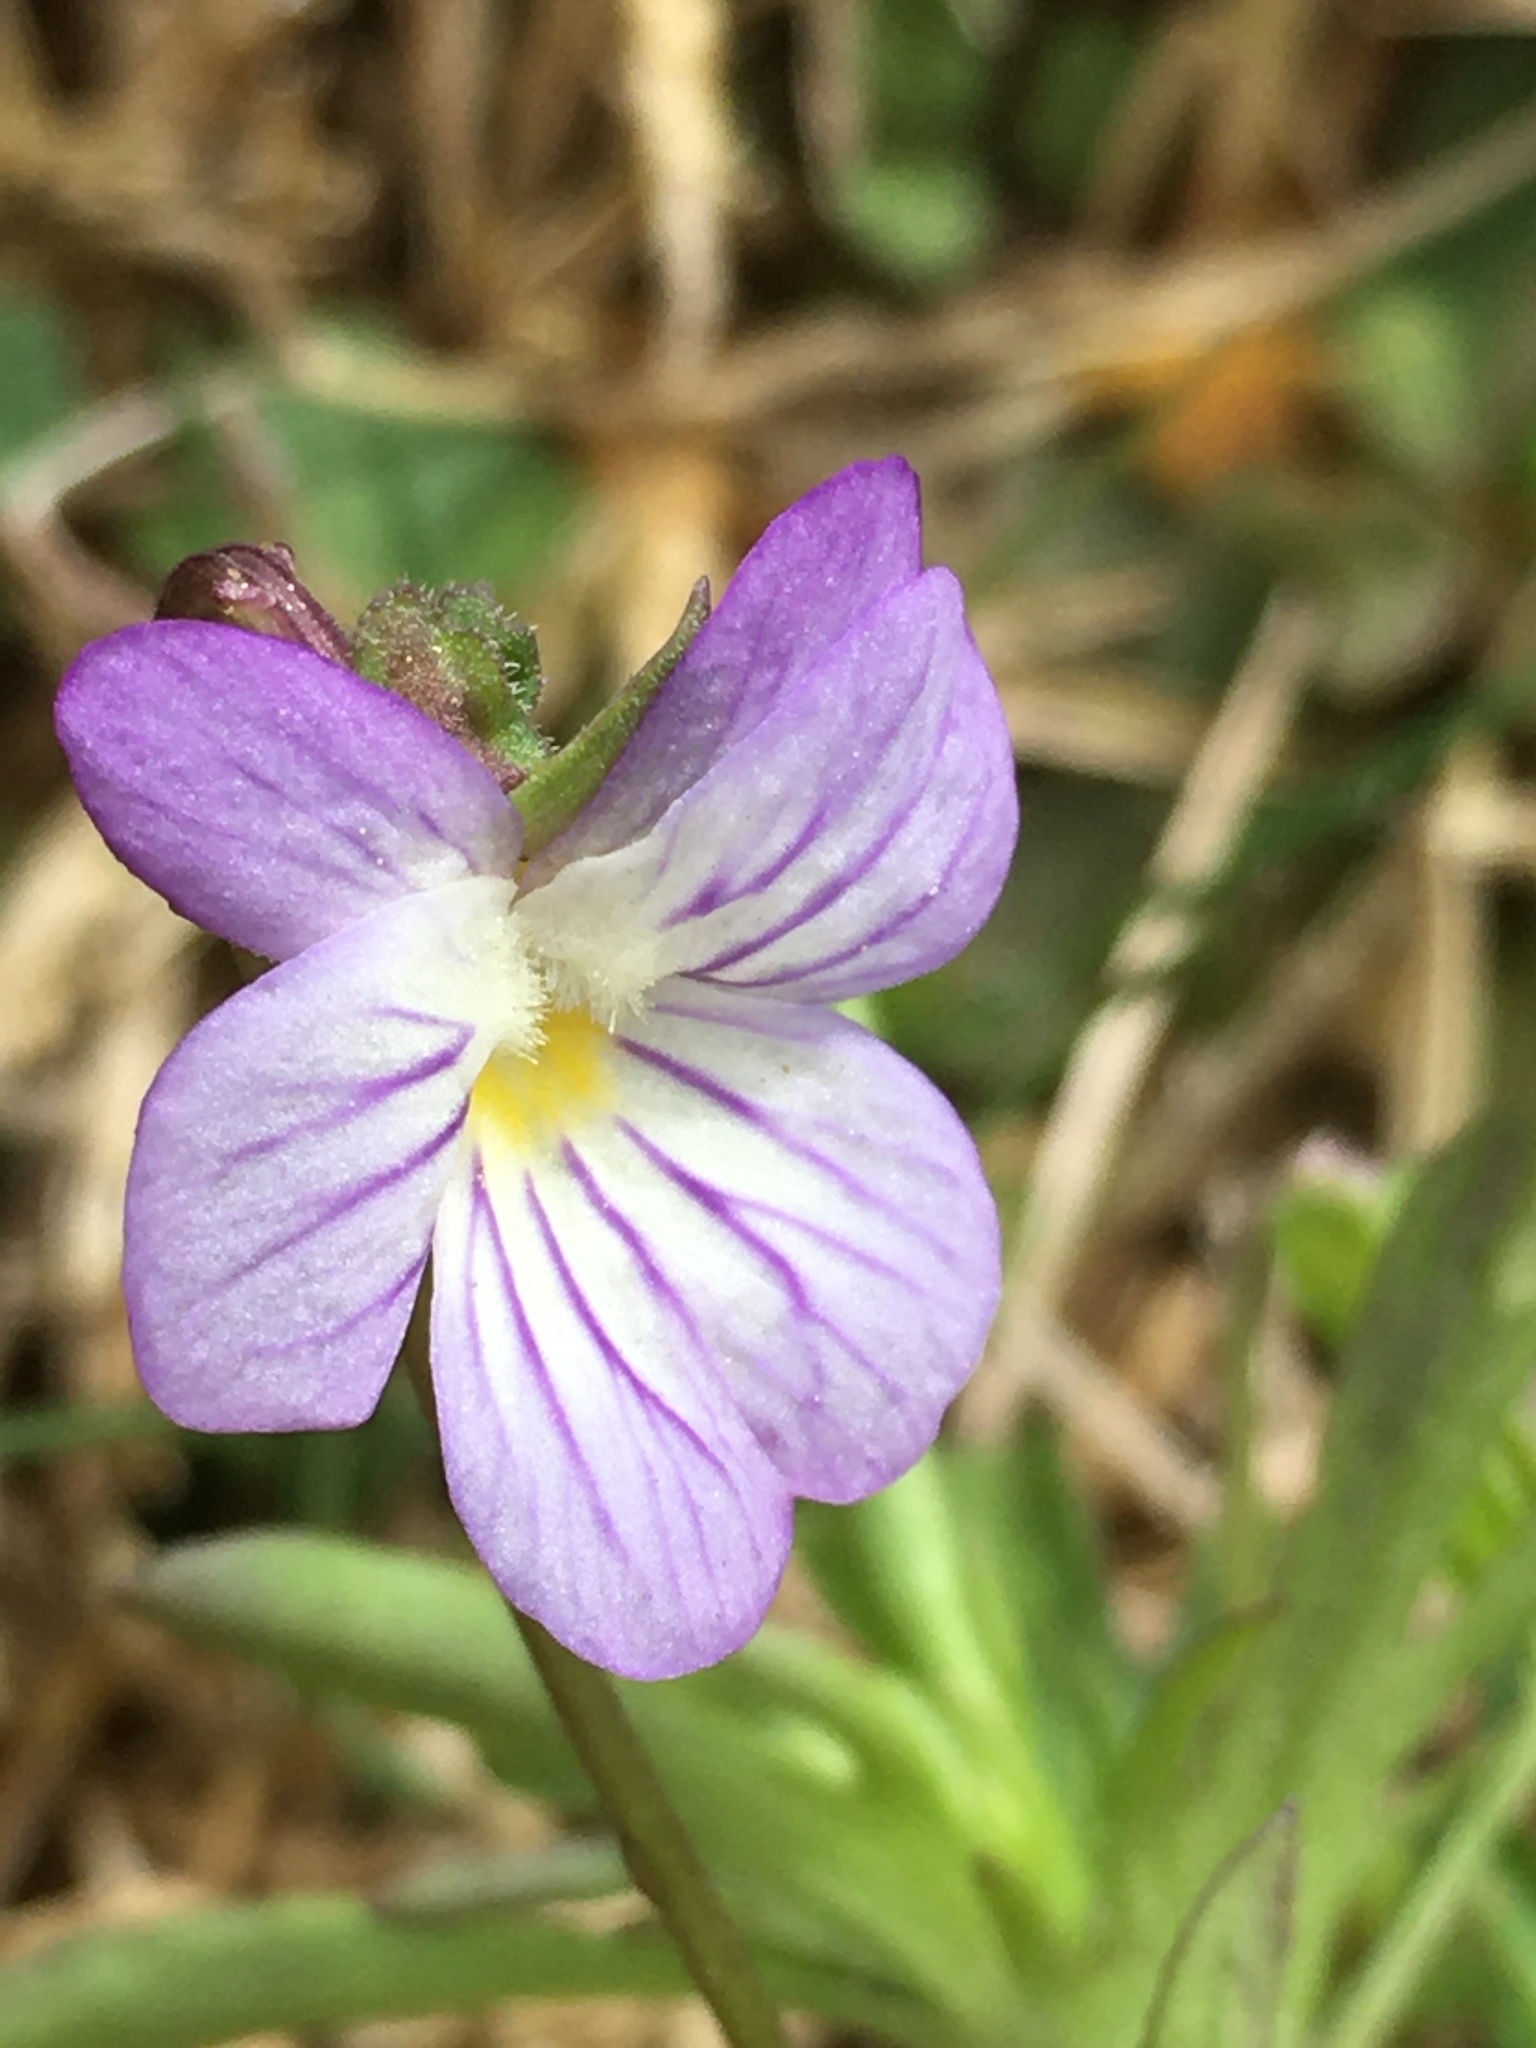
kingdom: Plantae
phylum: Tracheophyta
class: Magnoliopsida
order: Malpighiales
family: Violaceae
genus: Viola
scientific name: Viola rafinesquei
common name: American field pansy
